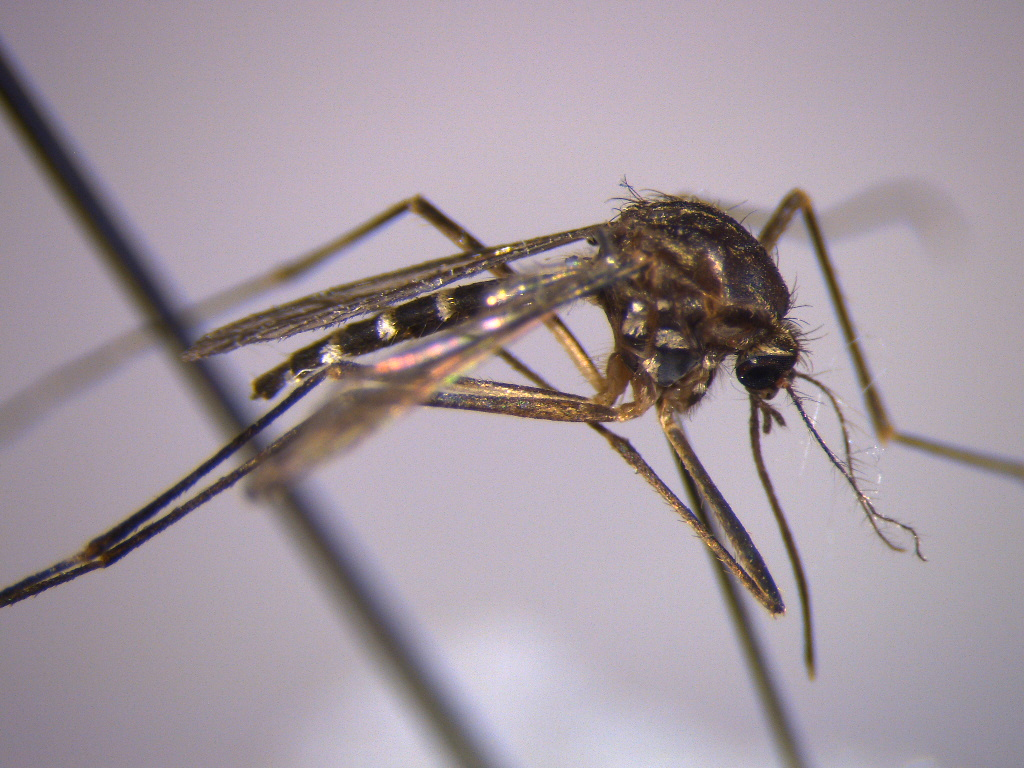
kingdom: Animalia
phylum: Arthropoda
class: Insecta
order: Diptera
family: Culicidae
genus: Aedes
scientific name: Aedes antipodeus
